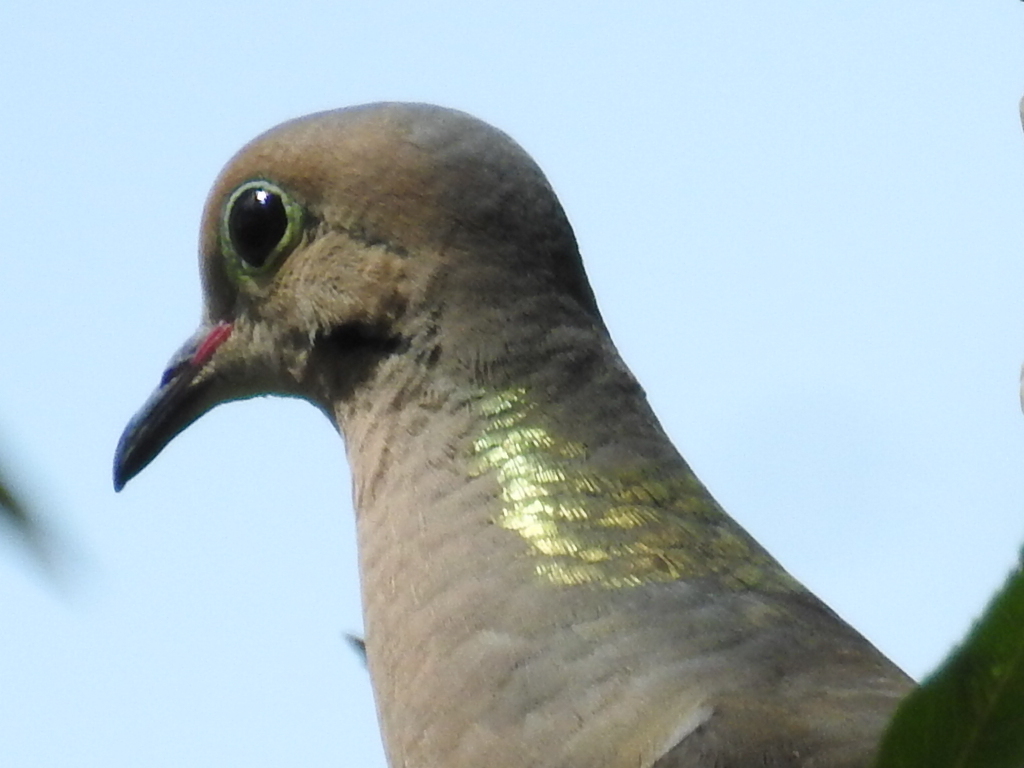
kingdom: Animalia
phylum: Chordata
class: Aves
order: Columbiformes
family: Columbidae
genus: Zenaida
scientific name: Zenaida macroura
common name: Mourning dove
